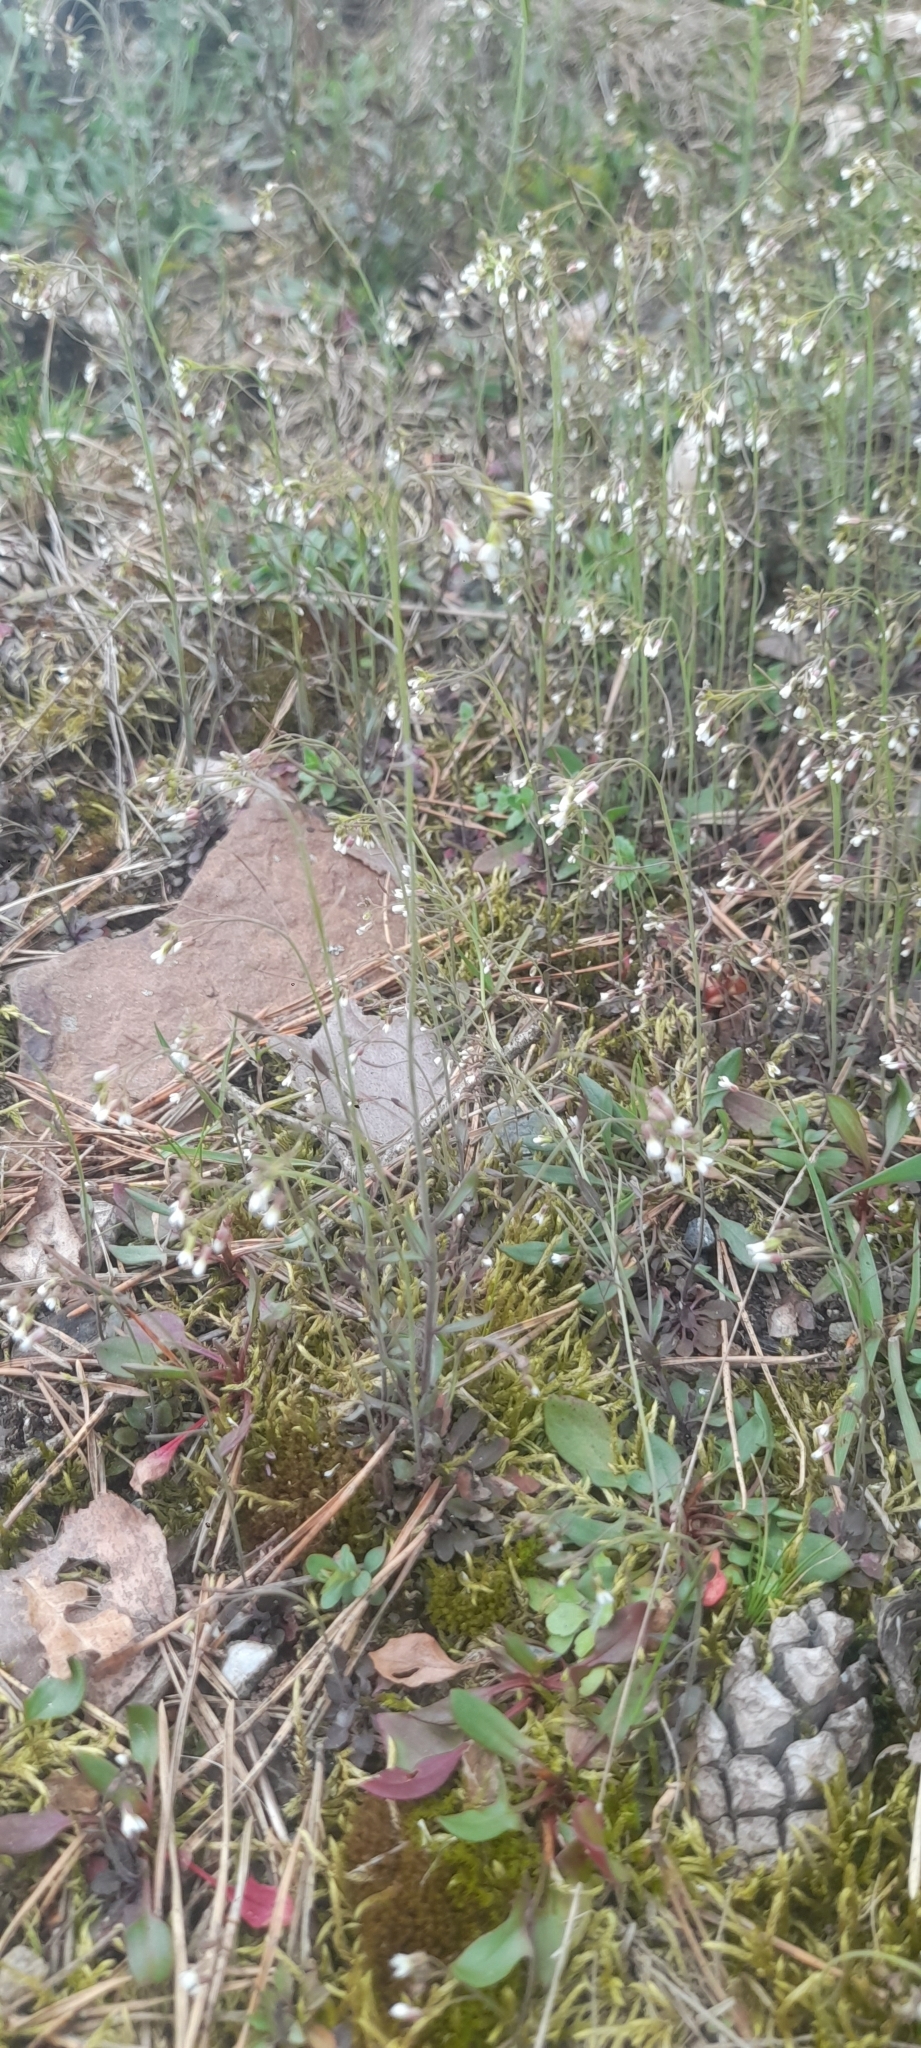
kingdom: Plantae
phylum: Tracheophyta
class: Magnoliopsida
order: Brassicales
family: Brassicaceae
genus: Arabidopsis
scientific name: Arabidopsis thaliana
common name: Thale cress
